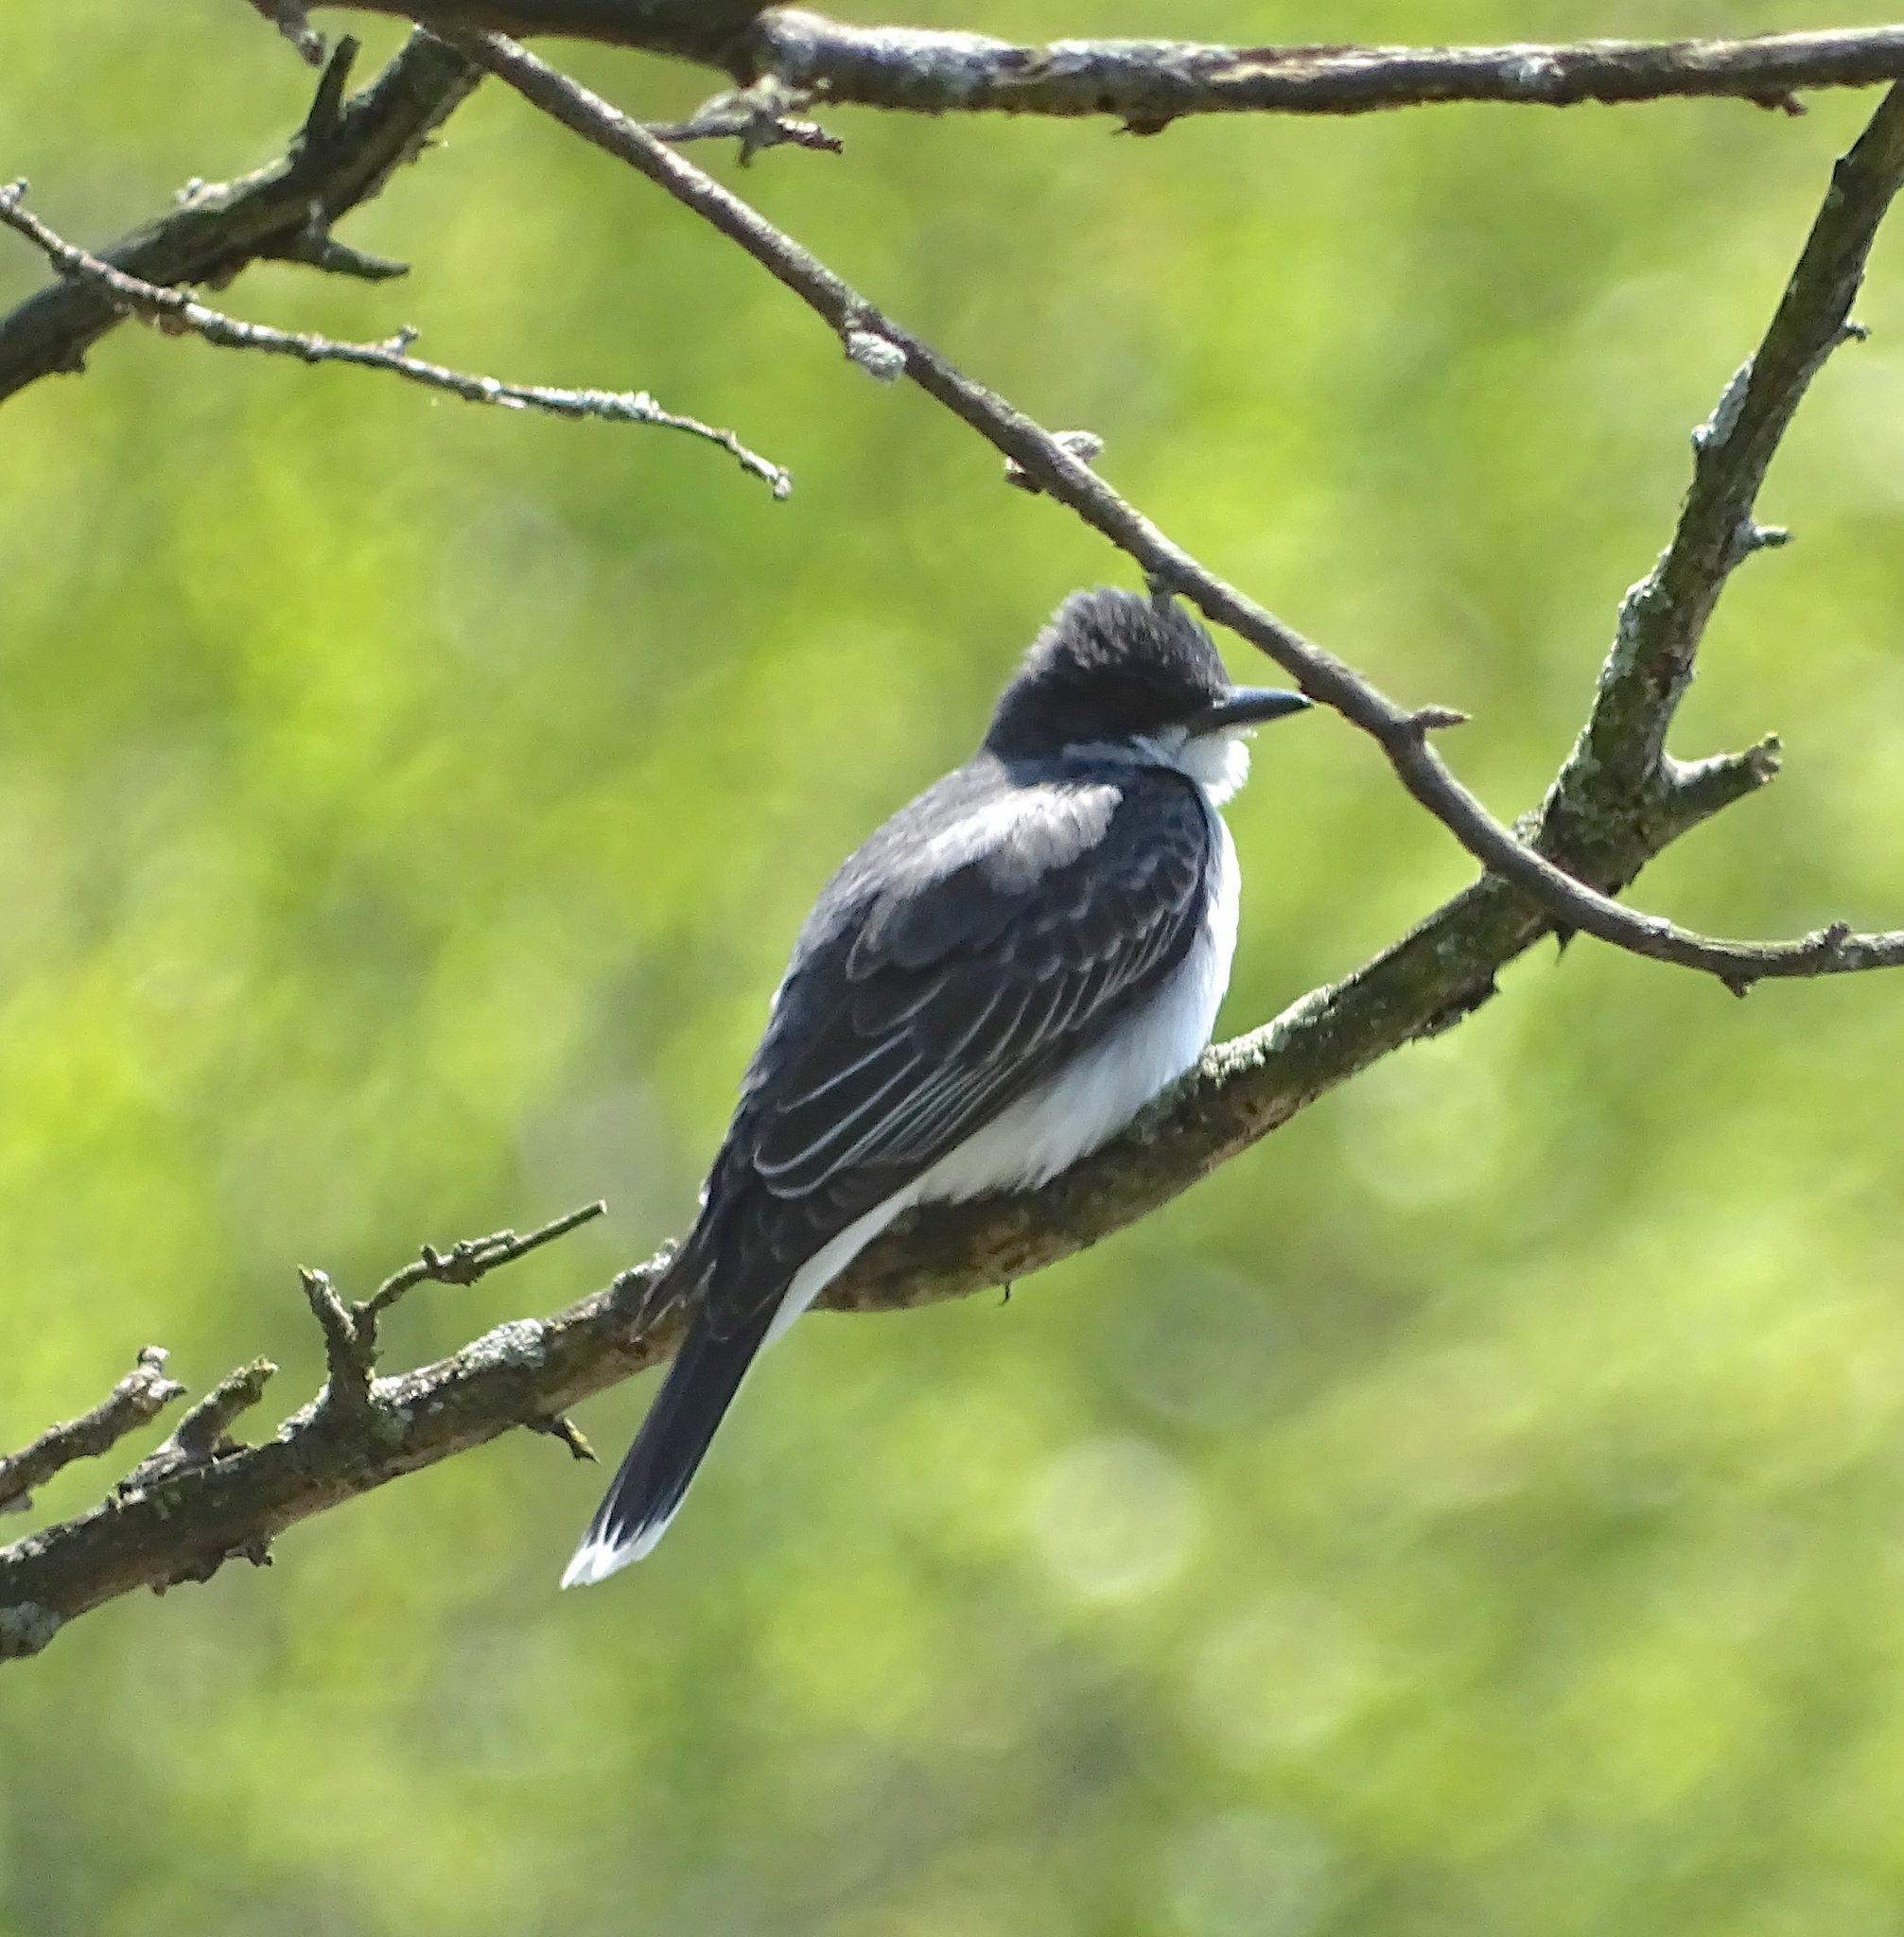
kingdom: Animalia
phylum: Chordata
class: Aves
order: Passeriformes
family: Tyrannidae
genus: Tyrannus
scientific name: Tyrannus tyrannus
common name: Eastern kingbird
